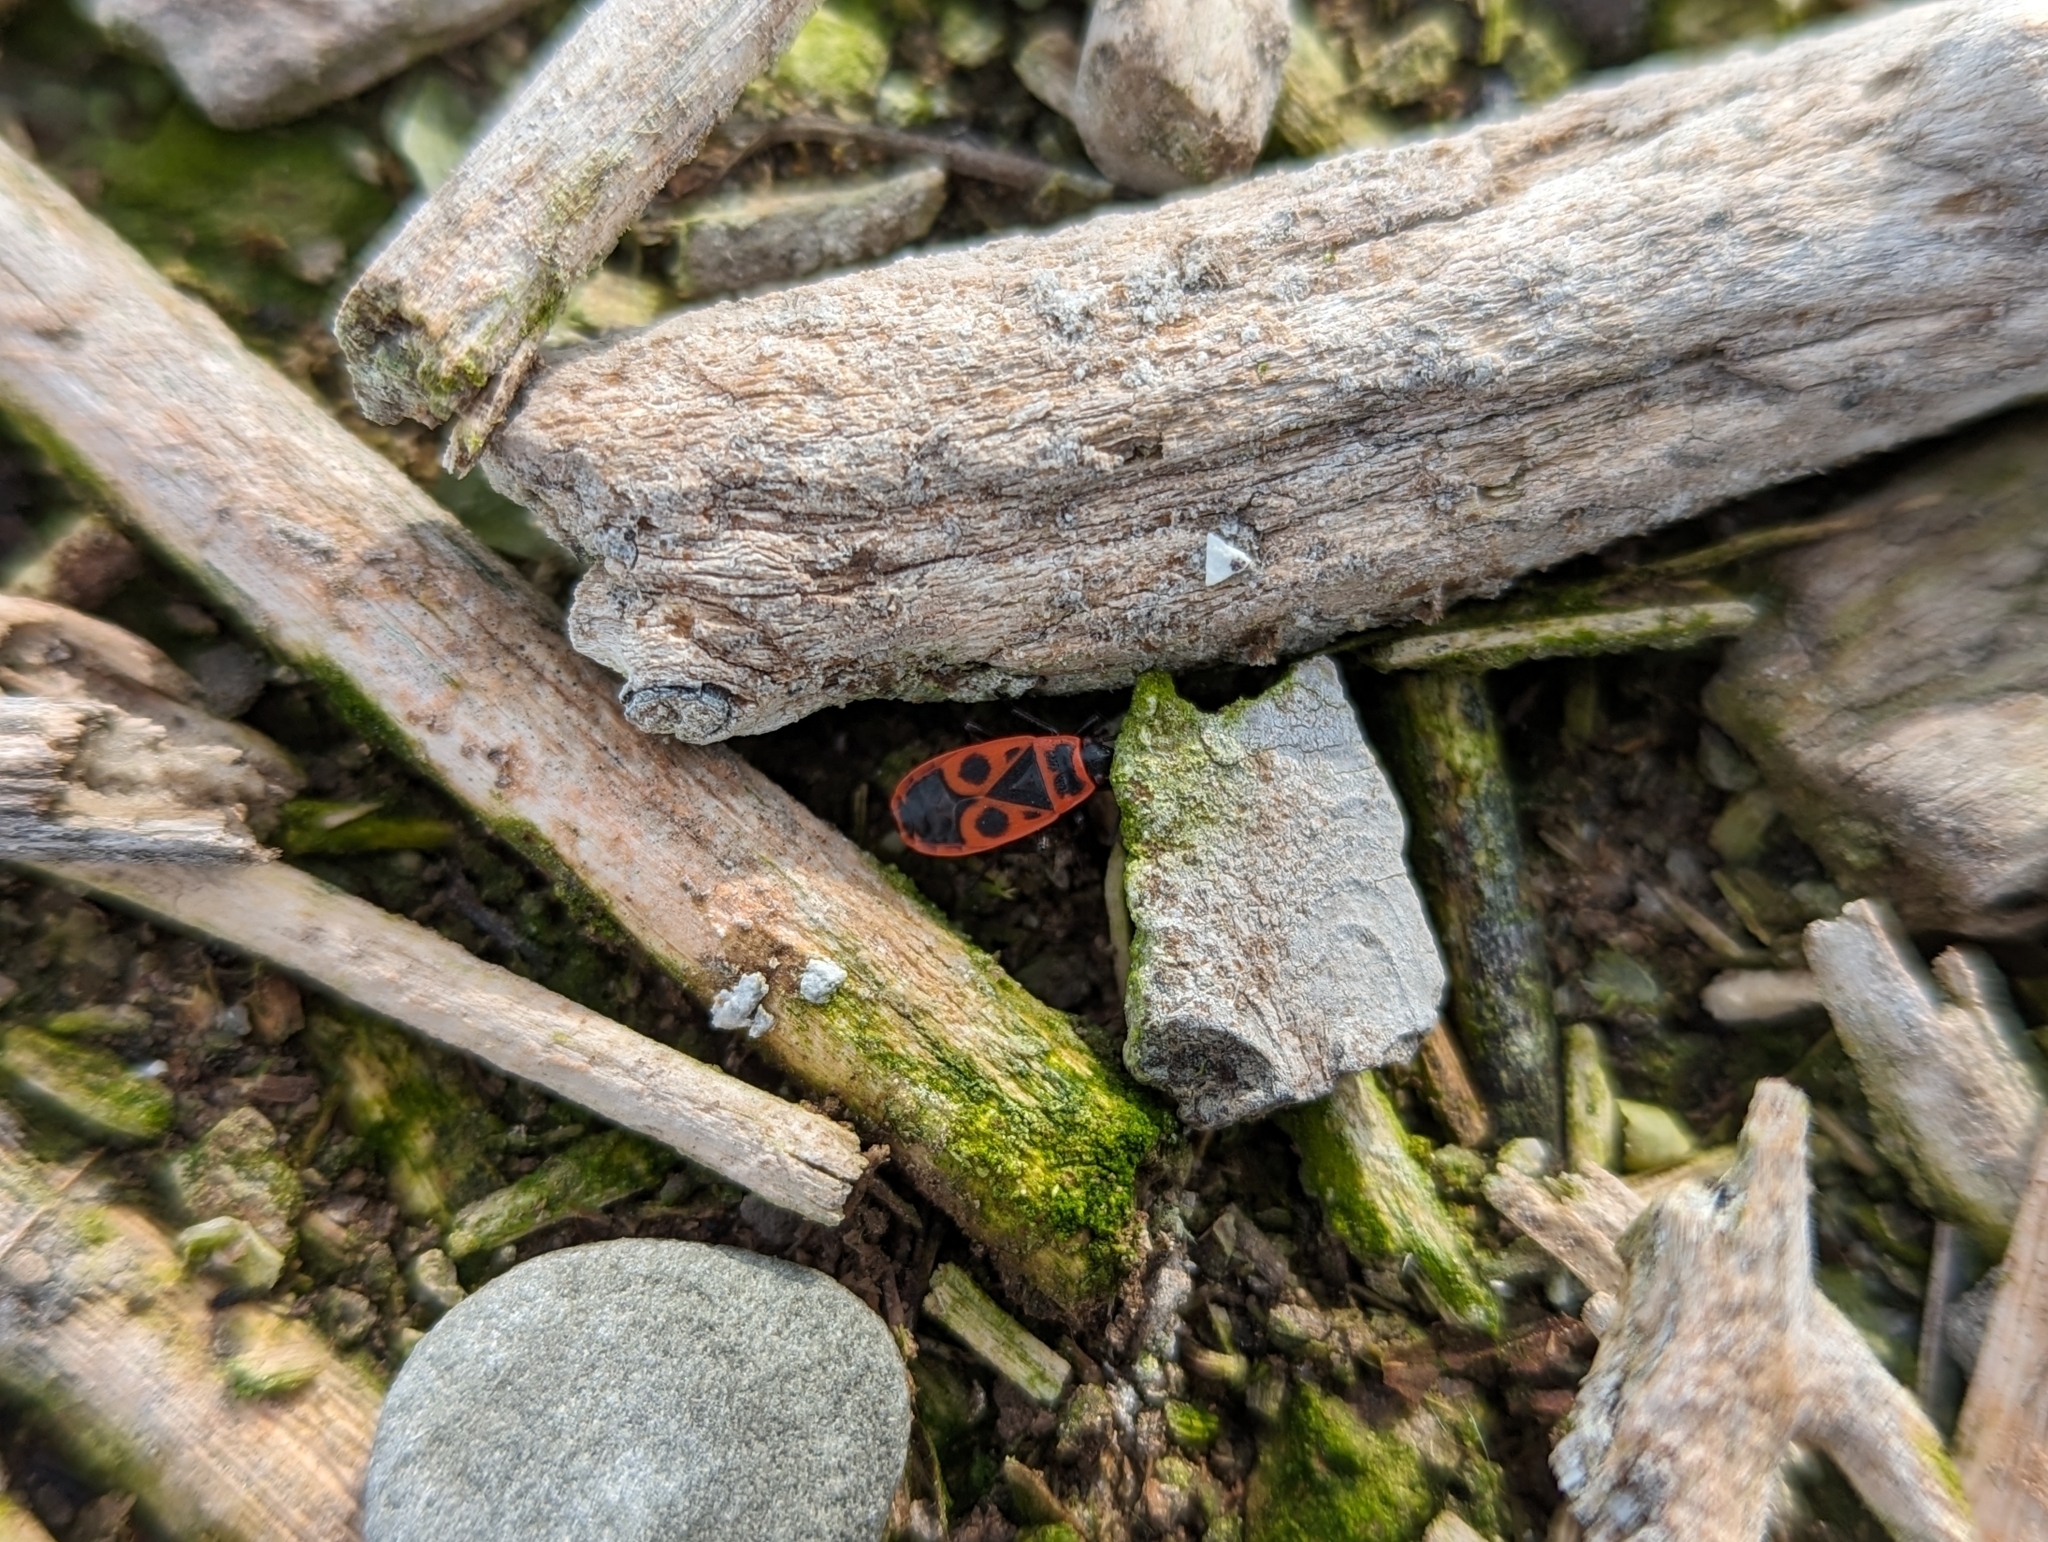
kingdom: Animalia
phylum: Arthropoda
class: Insecta
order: Hemiptera
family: Pyrrhocoridae
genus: Pyrrhocoris
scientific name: Pyrrhocoris apterus
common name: Firebug
